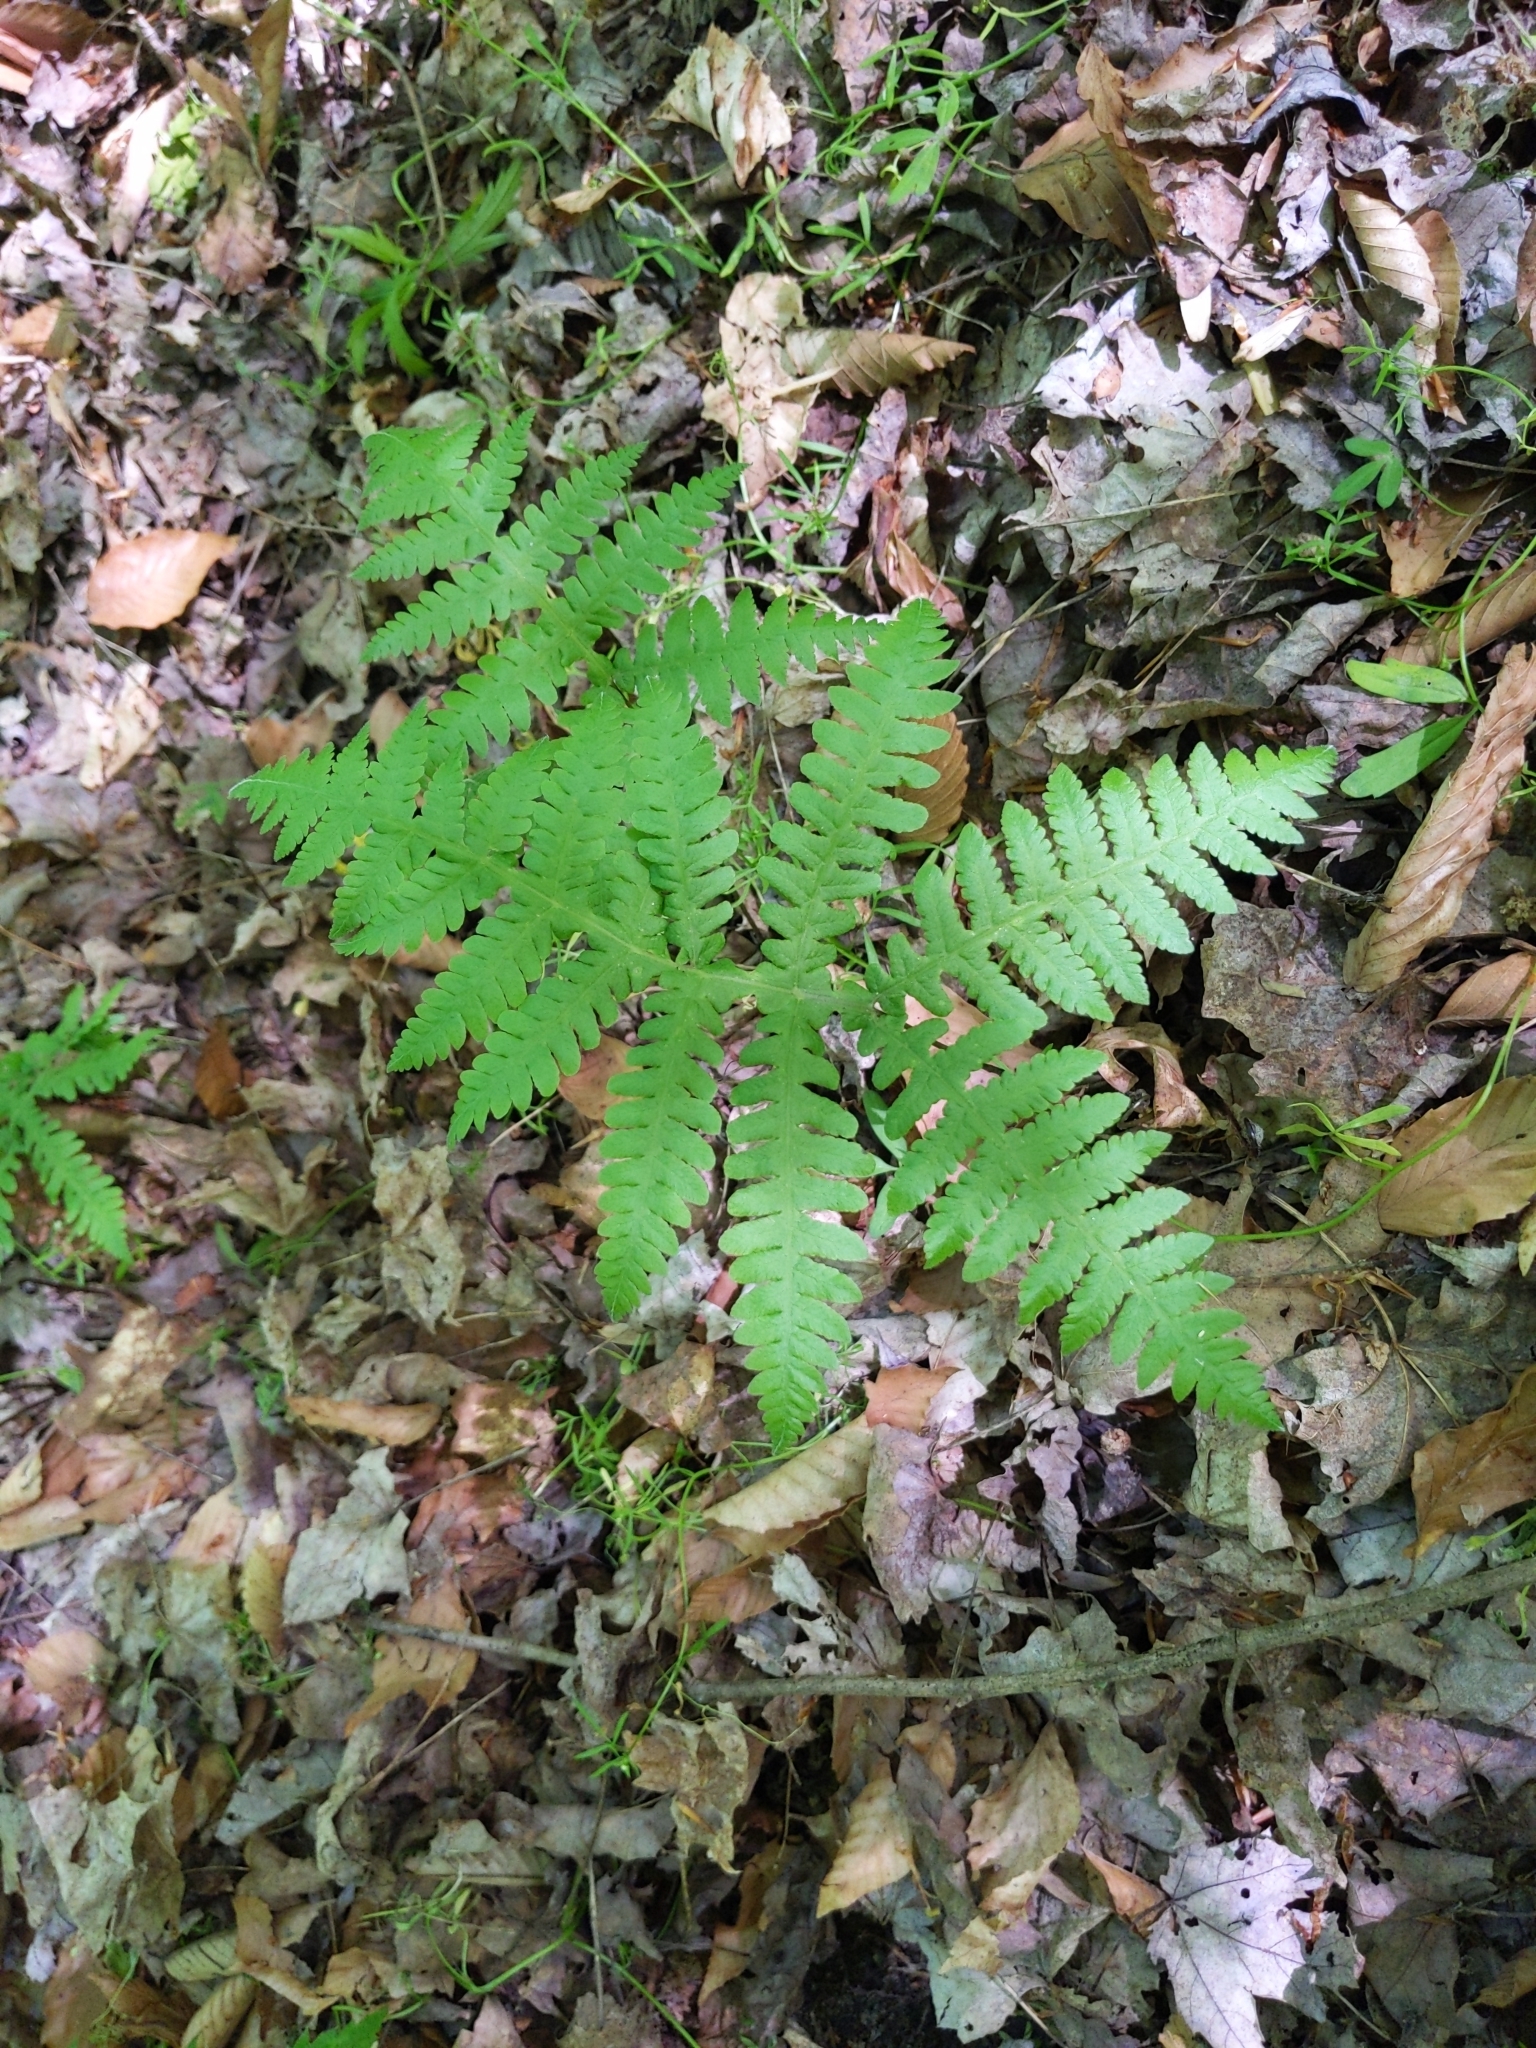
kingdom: Plantae
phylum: Tracheophyta
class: Polypodiopsida
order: Polypodiales
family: Thelypteridaceae
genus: Phegopteris
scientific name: Phegopteris hexagonoptera
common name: Broad beech fern
